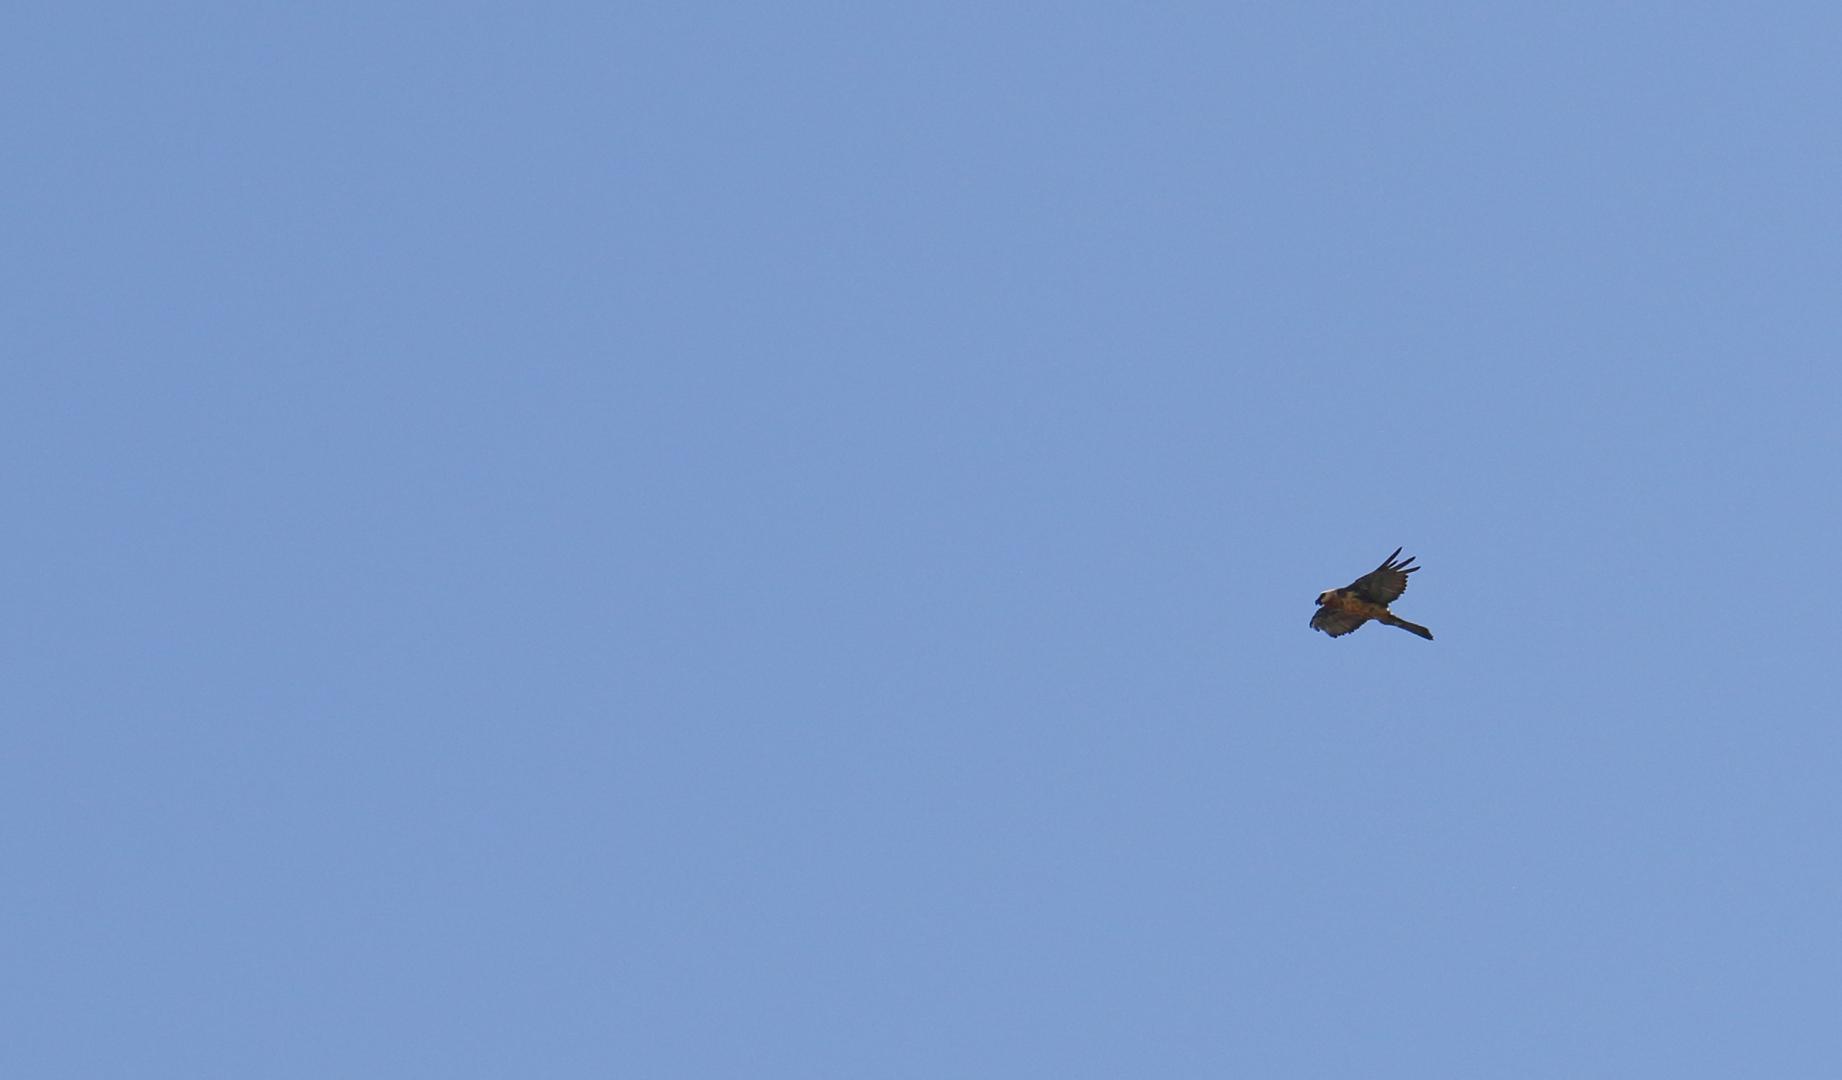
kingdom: Animalia
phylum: Chordata
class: Aves
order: Accipitriformes
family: Accipitridae
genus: Gypaetus
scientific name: Gypaetus barbatus
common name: Bearded vulture
